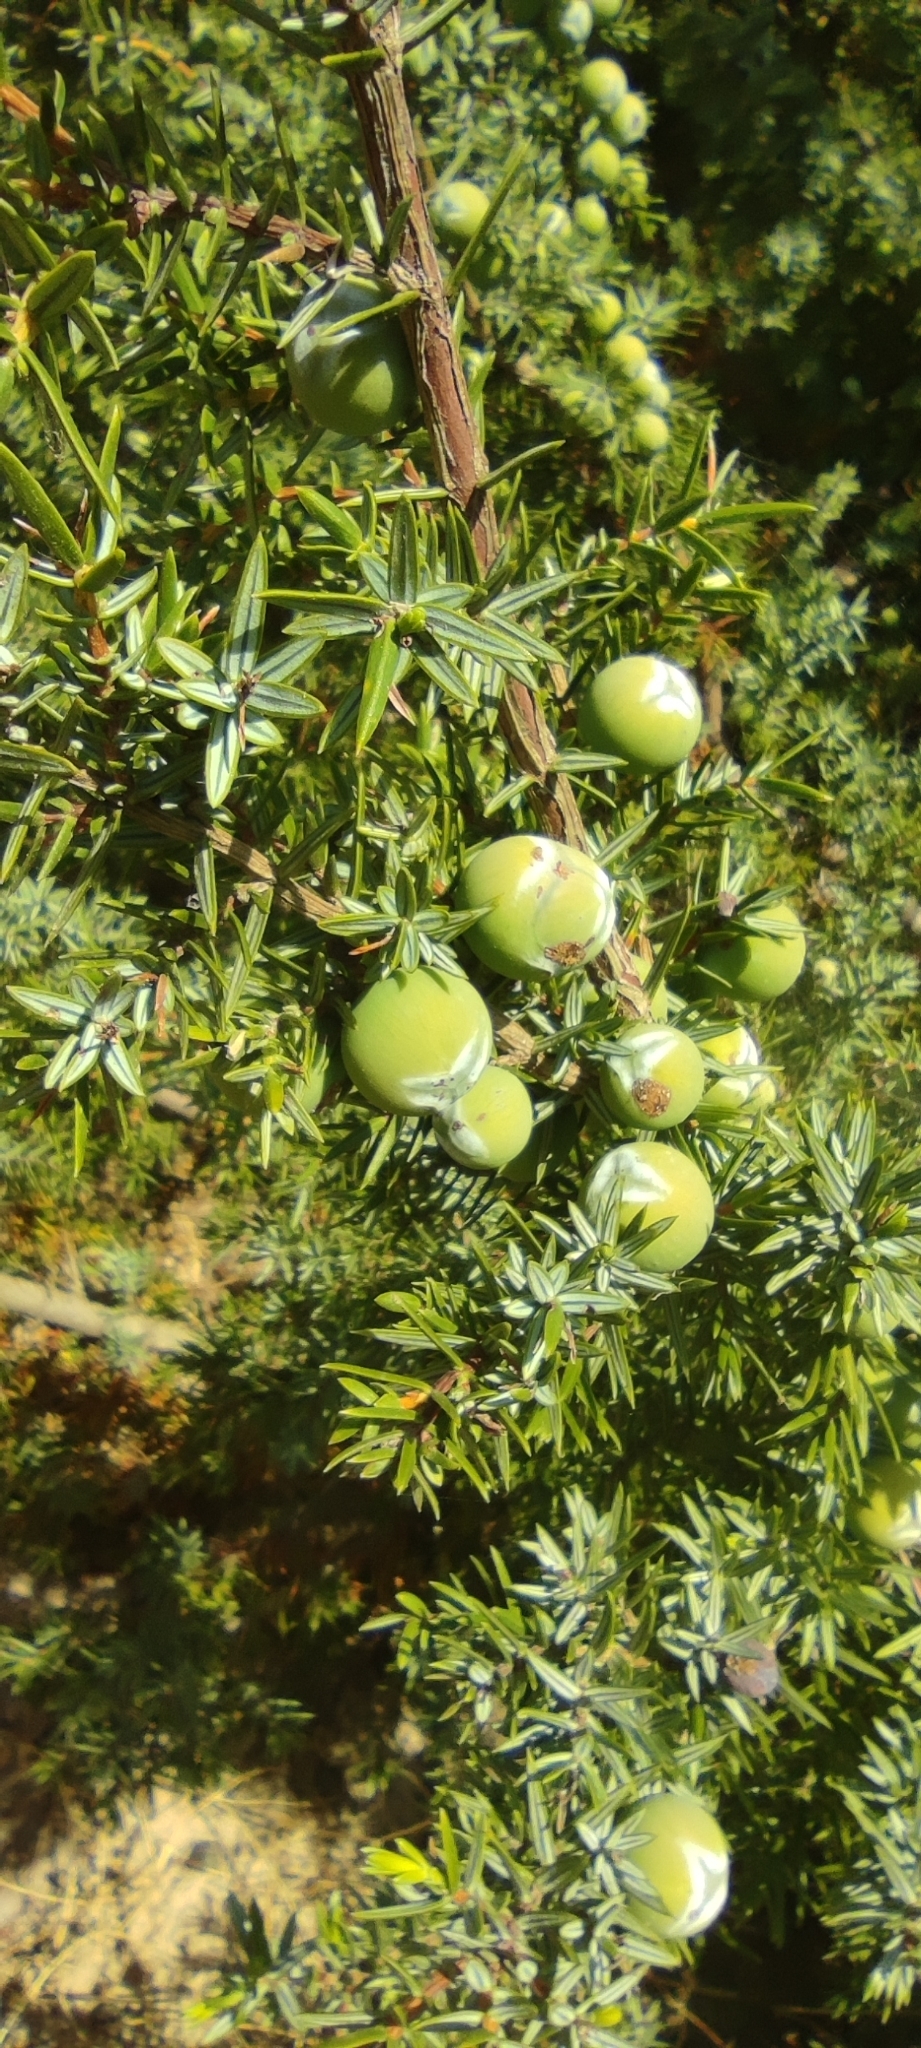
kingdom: Plantae
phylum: Tracheophyta
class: Pinopsida
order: Pinales
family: Cupressaceae
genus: Juniperus
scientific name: Juniperus oxycedrus
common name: Prickly juniper
